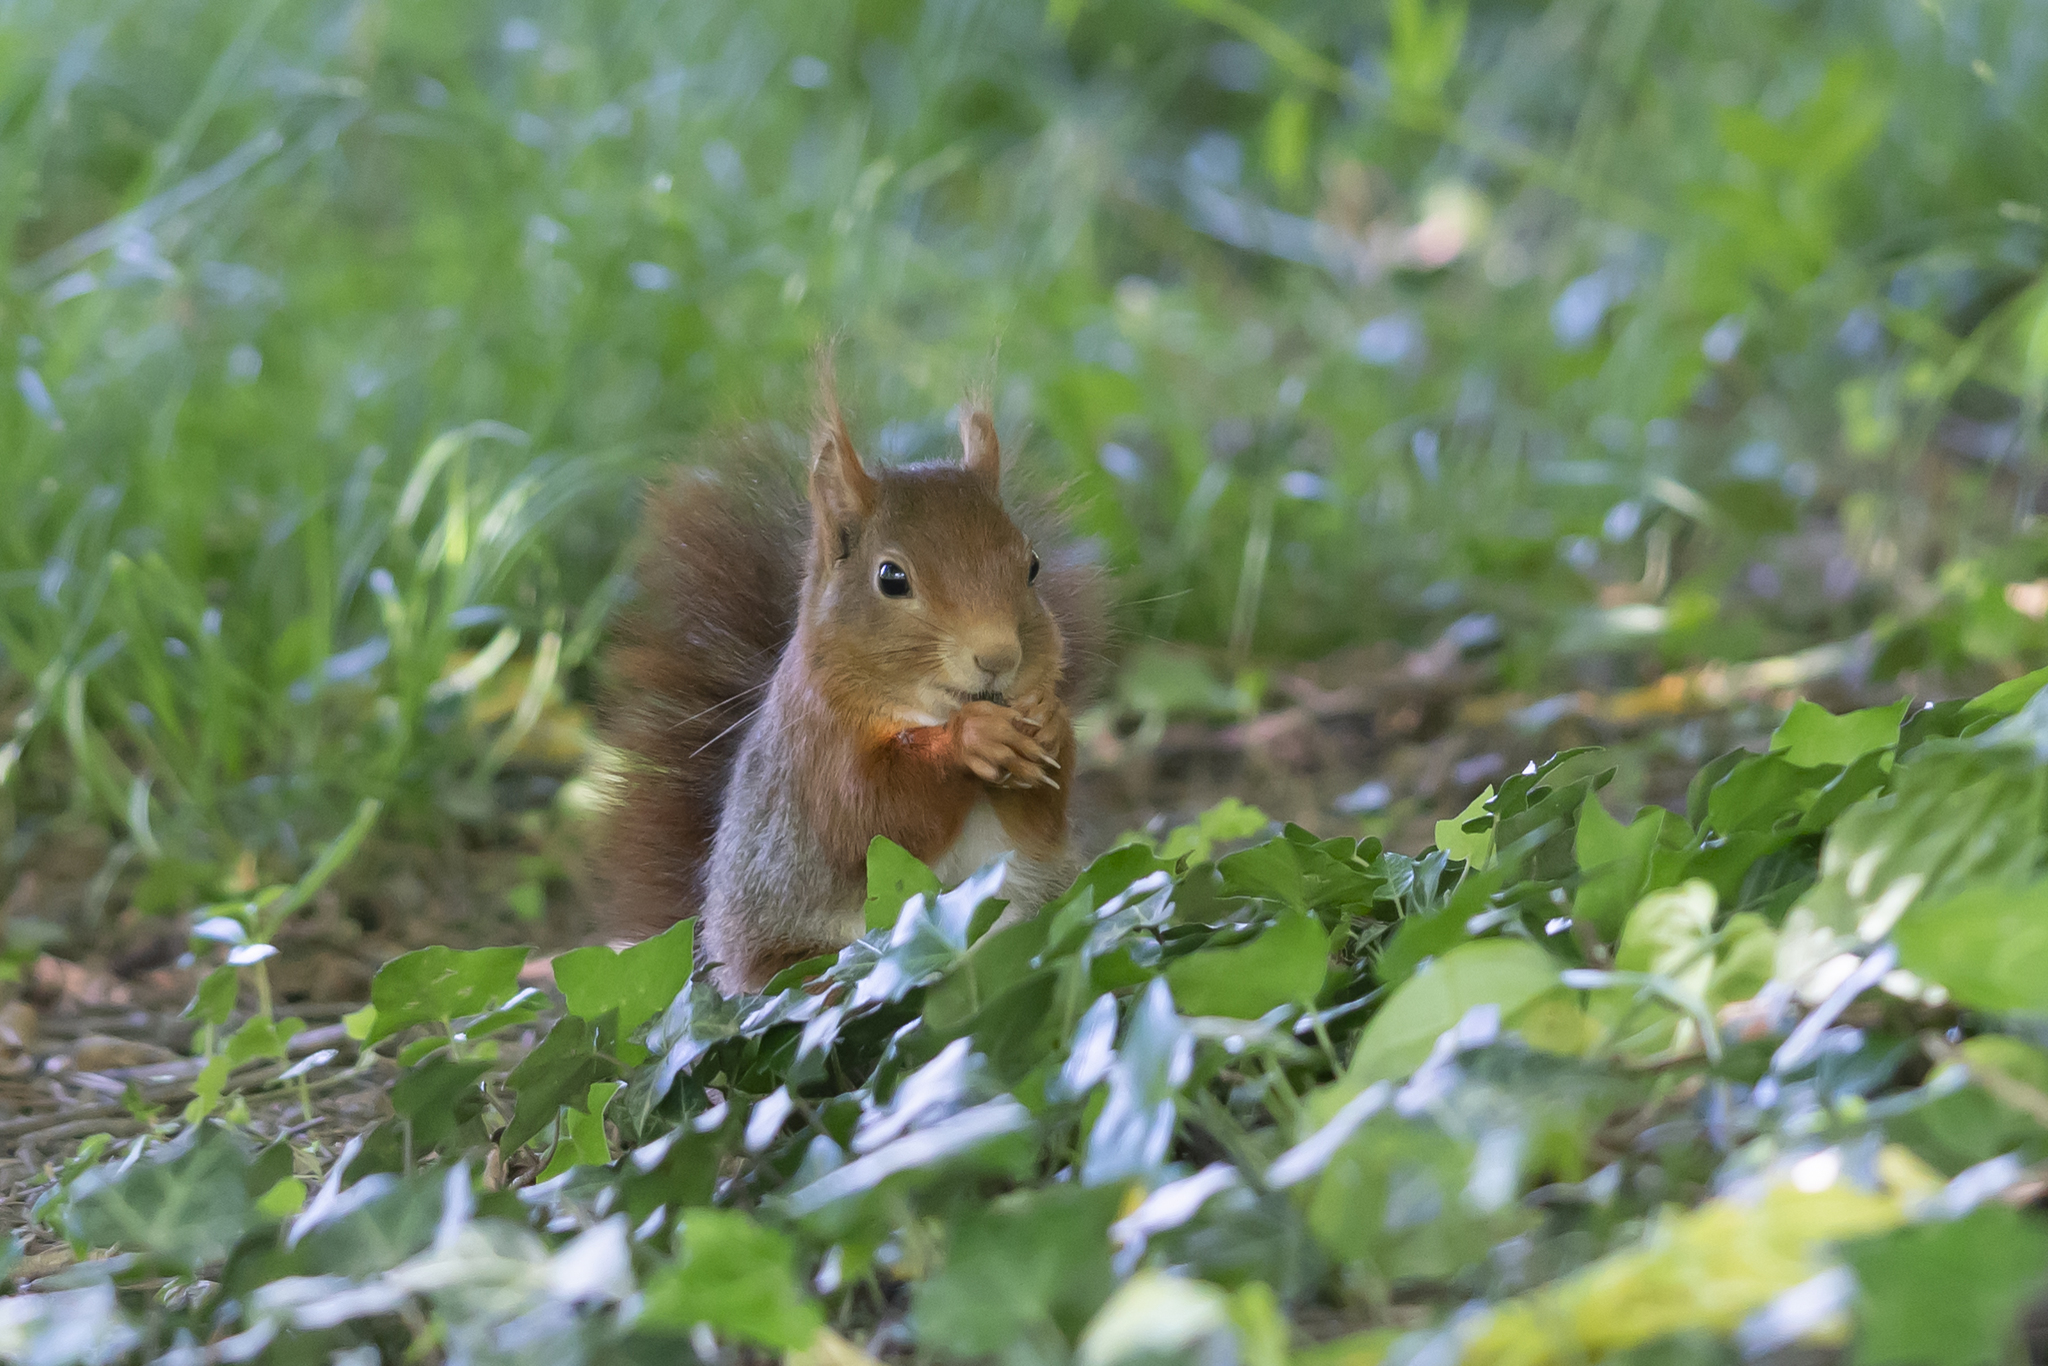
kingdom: Animalia
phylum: Chordata
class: Mammalia
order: Rodentia
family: Sciuridae
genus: Sciurus
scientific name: Sciurus vulgaris
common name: Eurasian red squirrel
